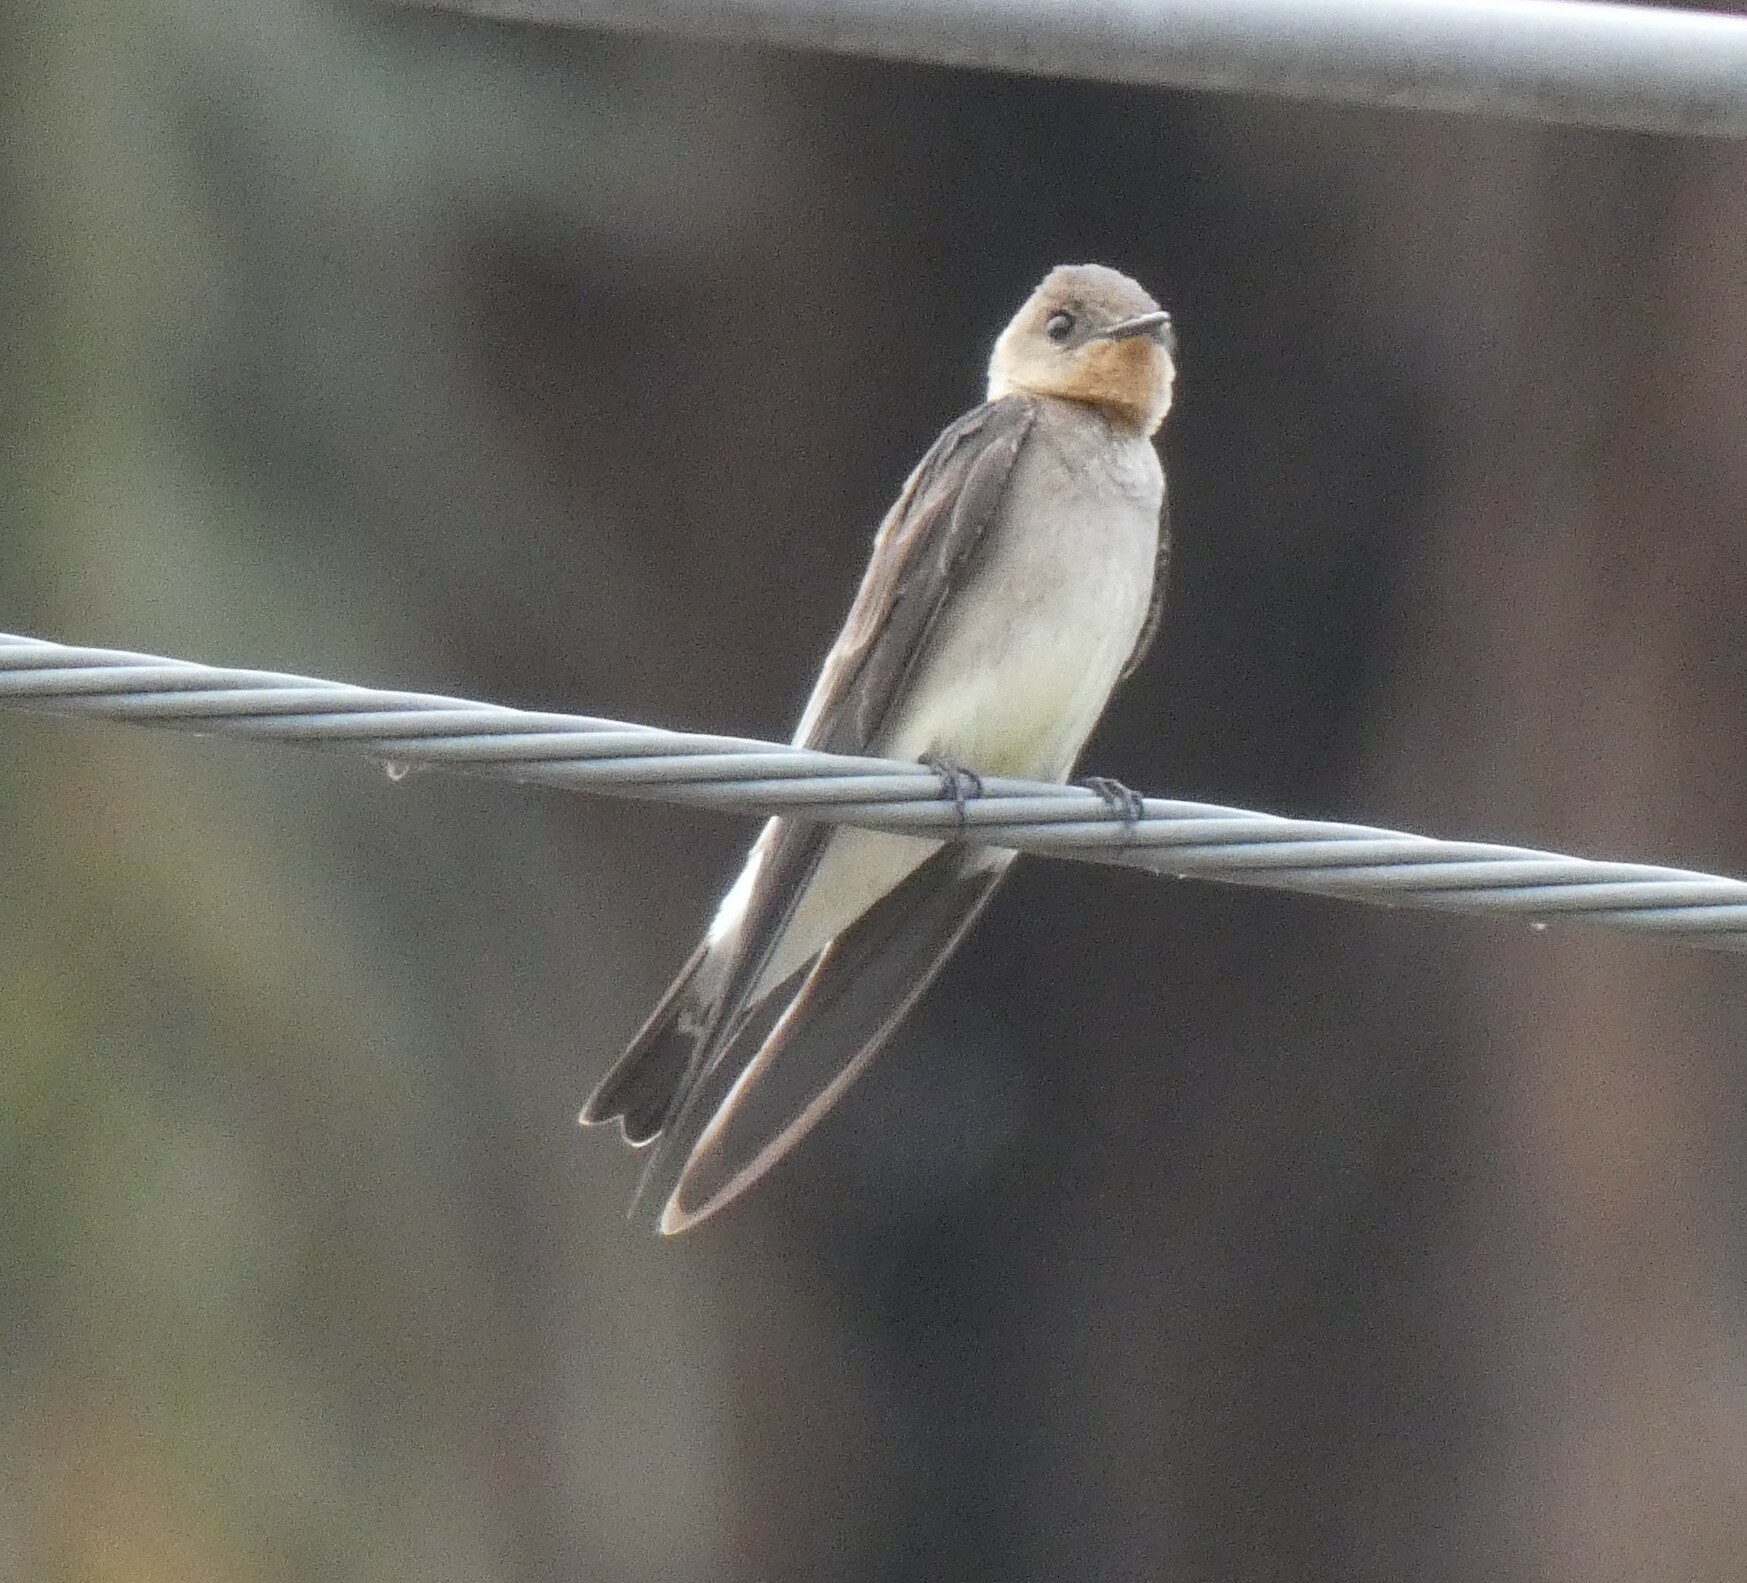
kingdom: Animalia
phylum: Chordata
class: Aves
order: Passeriformes
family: Hirundinidae
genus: Stelgidopteryx
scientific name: Stelgidopteryx ruficollis
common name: Southern rough-winged swallow
